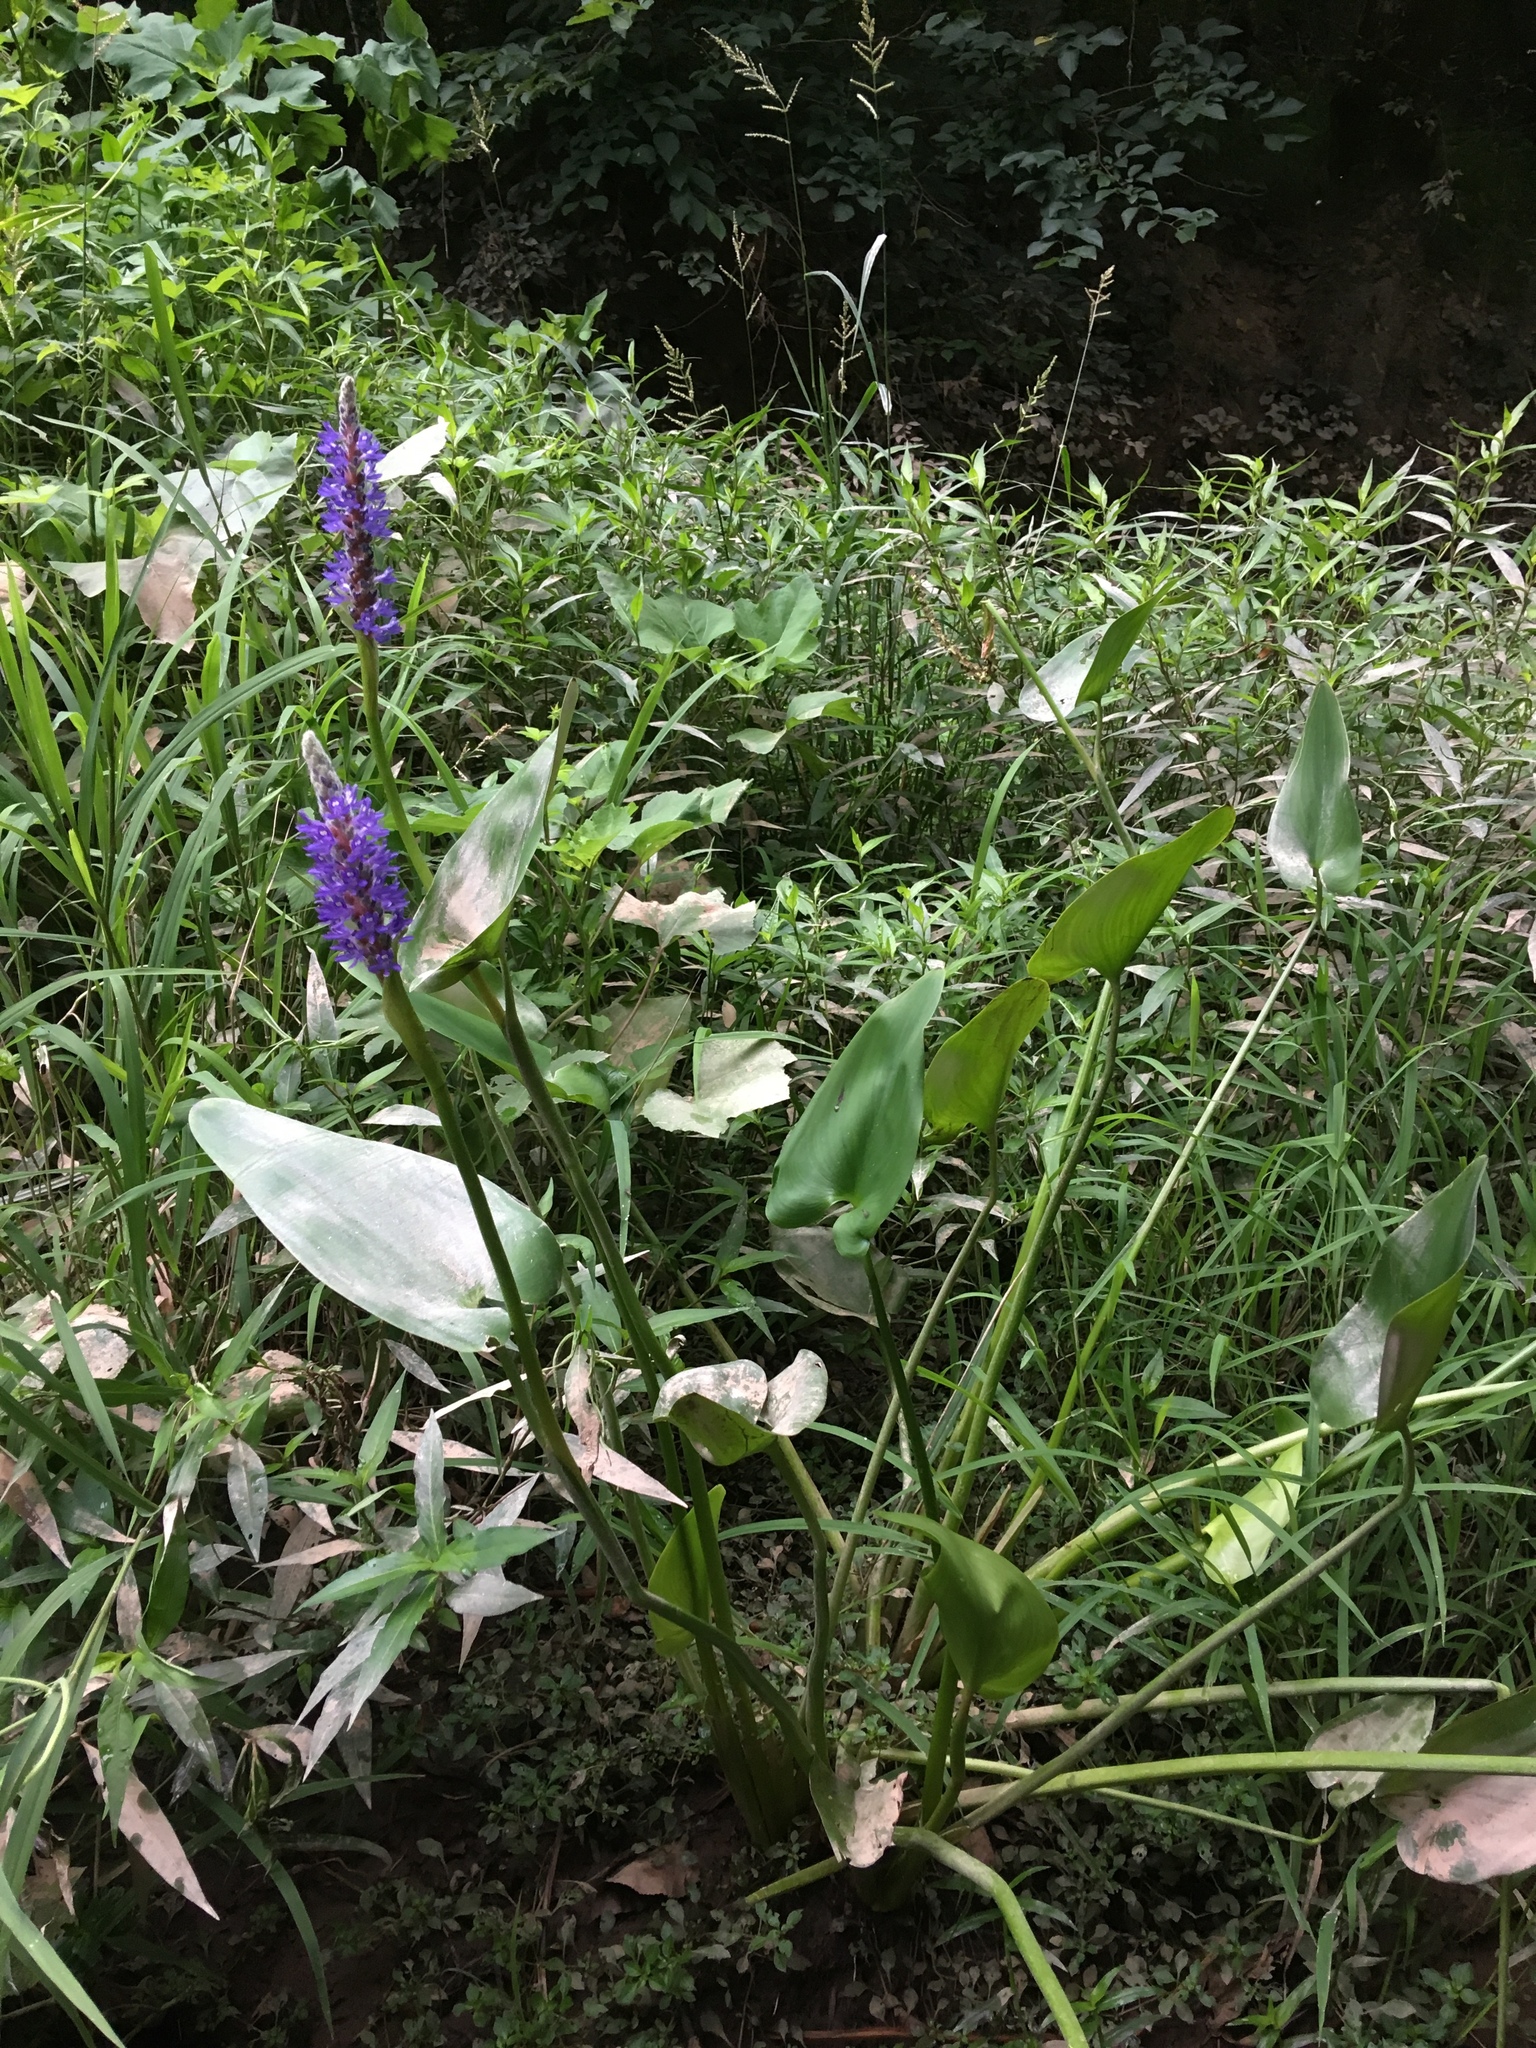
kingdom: Plantae
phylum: Tracheophyta
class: Liliopsida
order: Commelinales
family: Pontederiaceae
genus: Pontederia
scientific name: Pontederia cordata
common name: Pickerelweed
